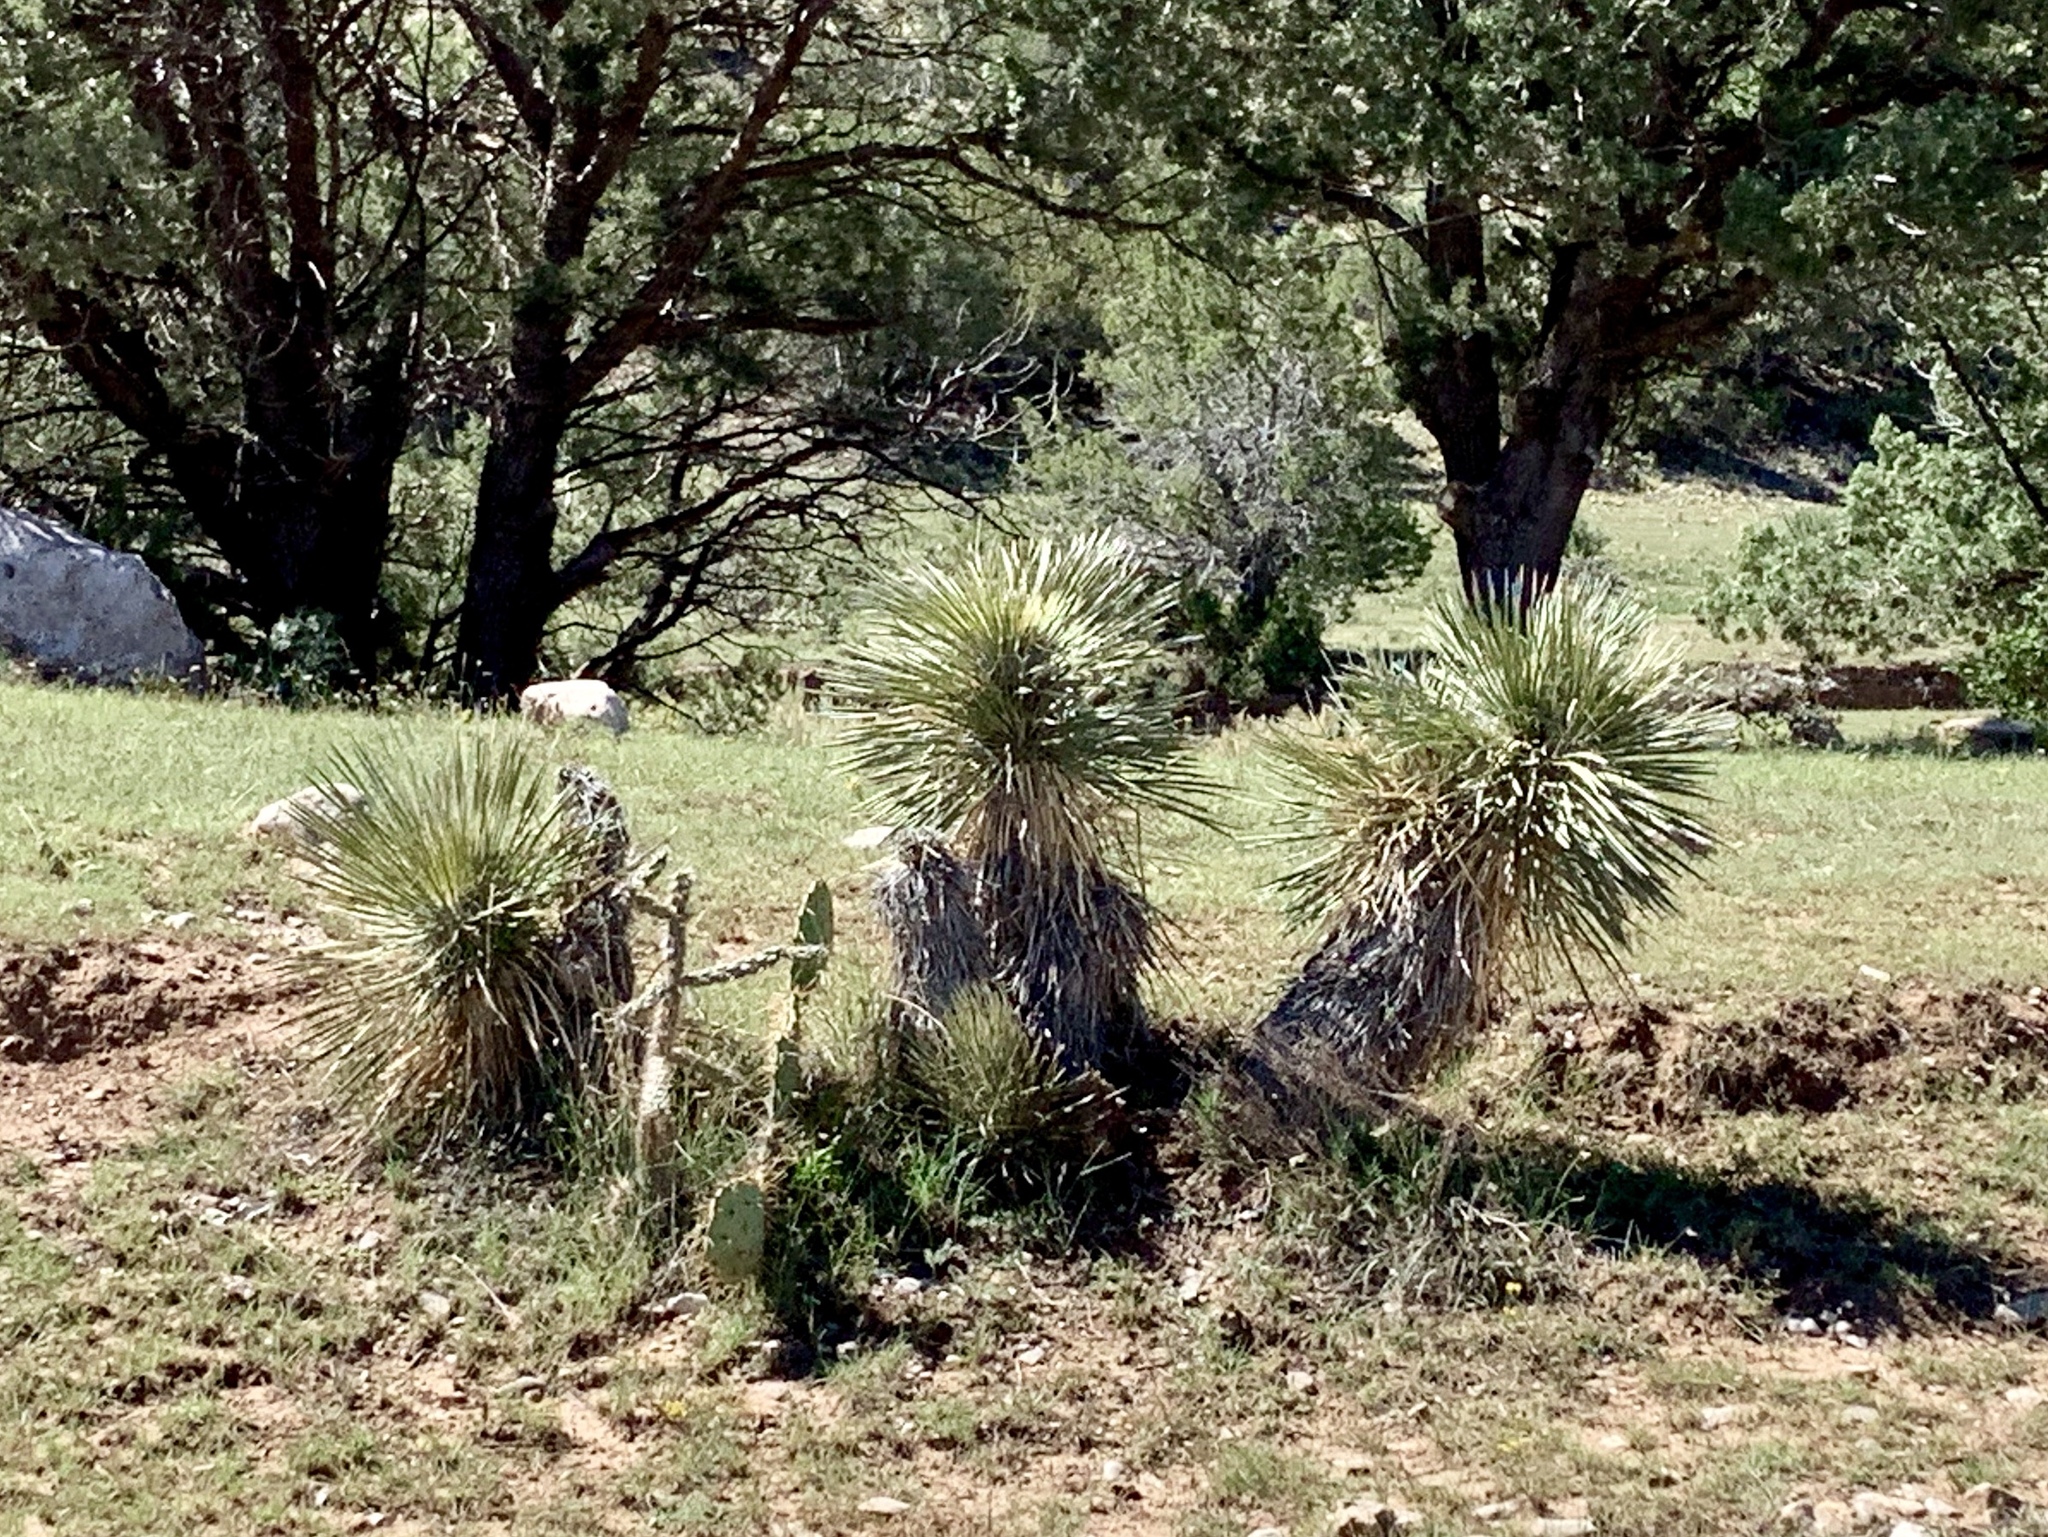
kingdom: Plantae
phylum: Tracheophyta
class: Liliopsida
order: Asparagales
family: Asparagaceae
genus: Yucca
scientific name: Yucca elata
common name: Palmella
